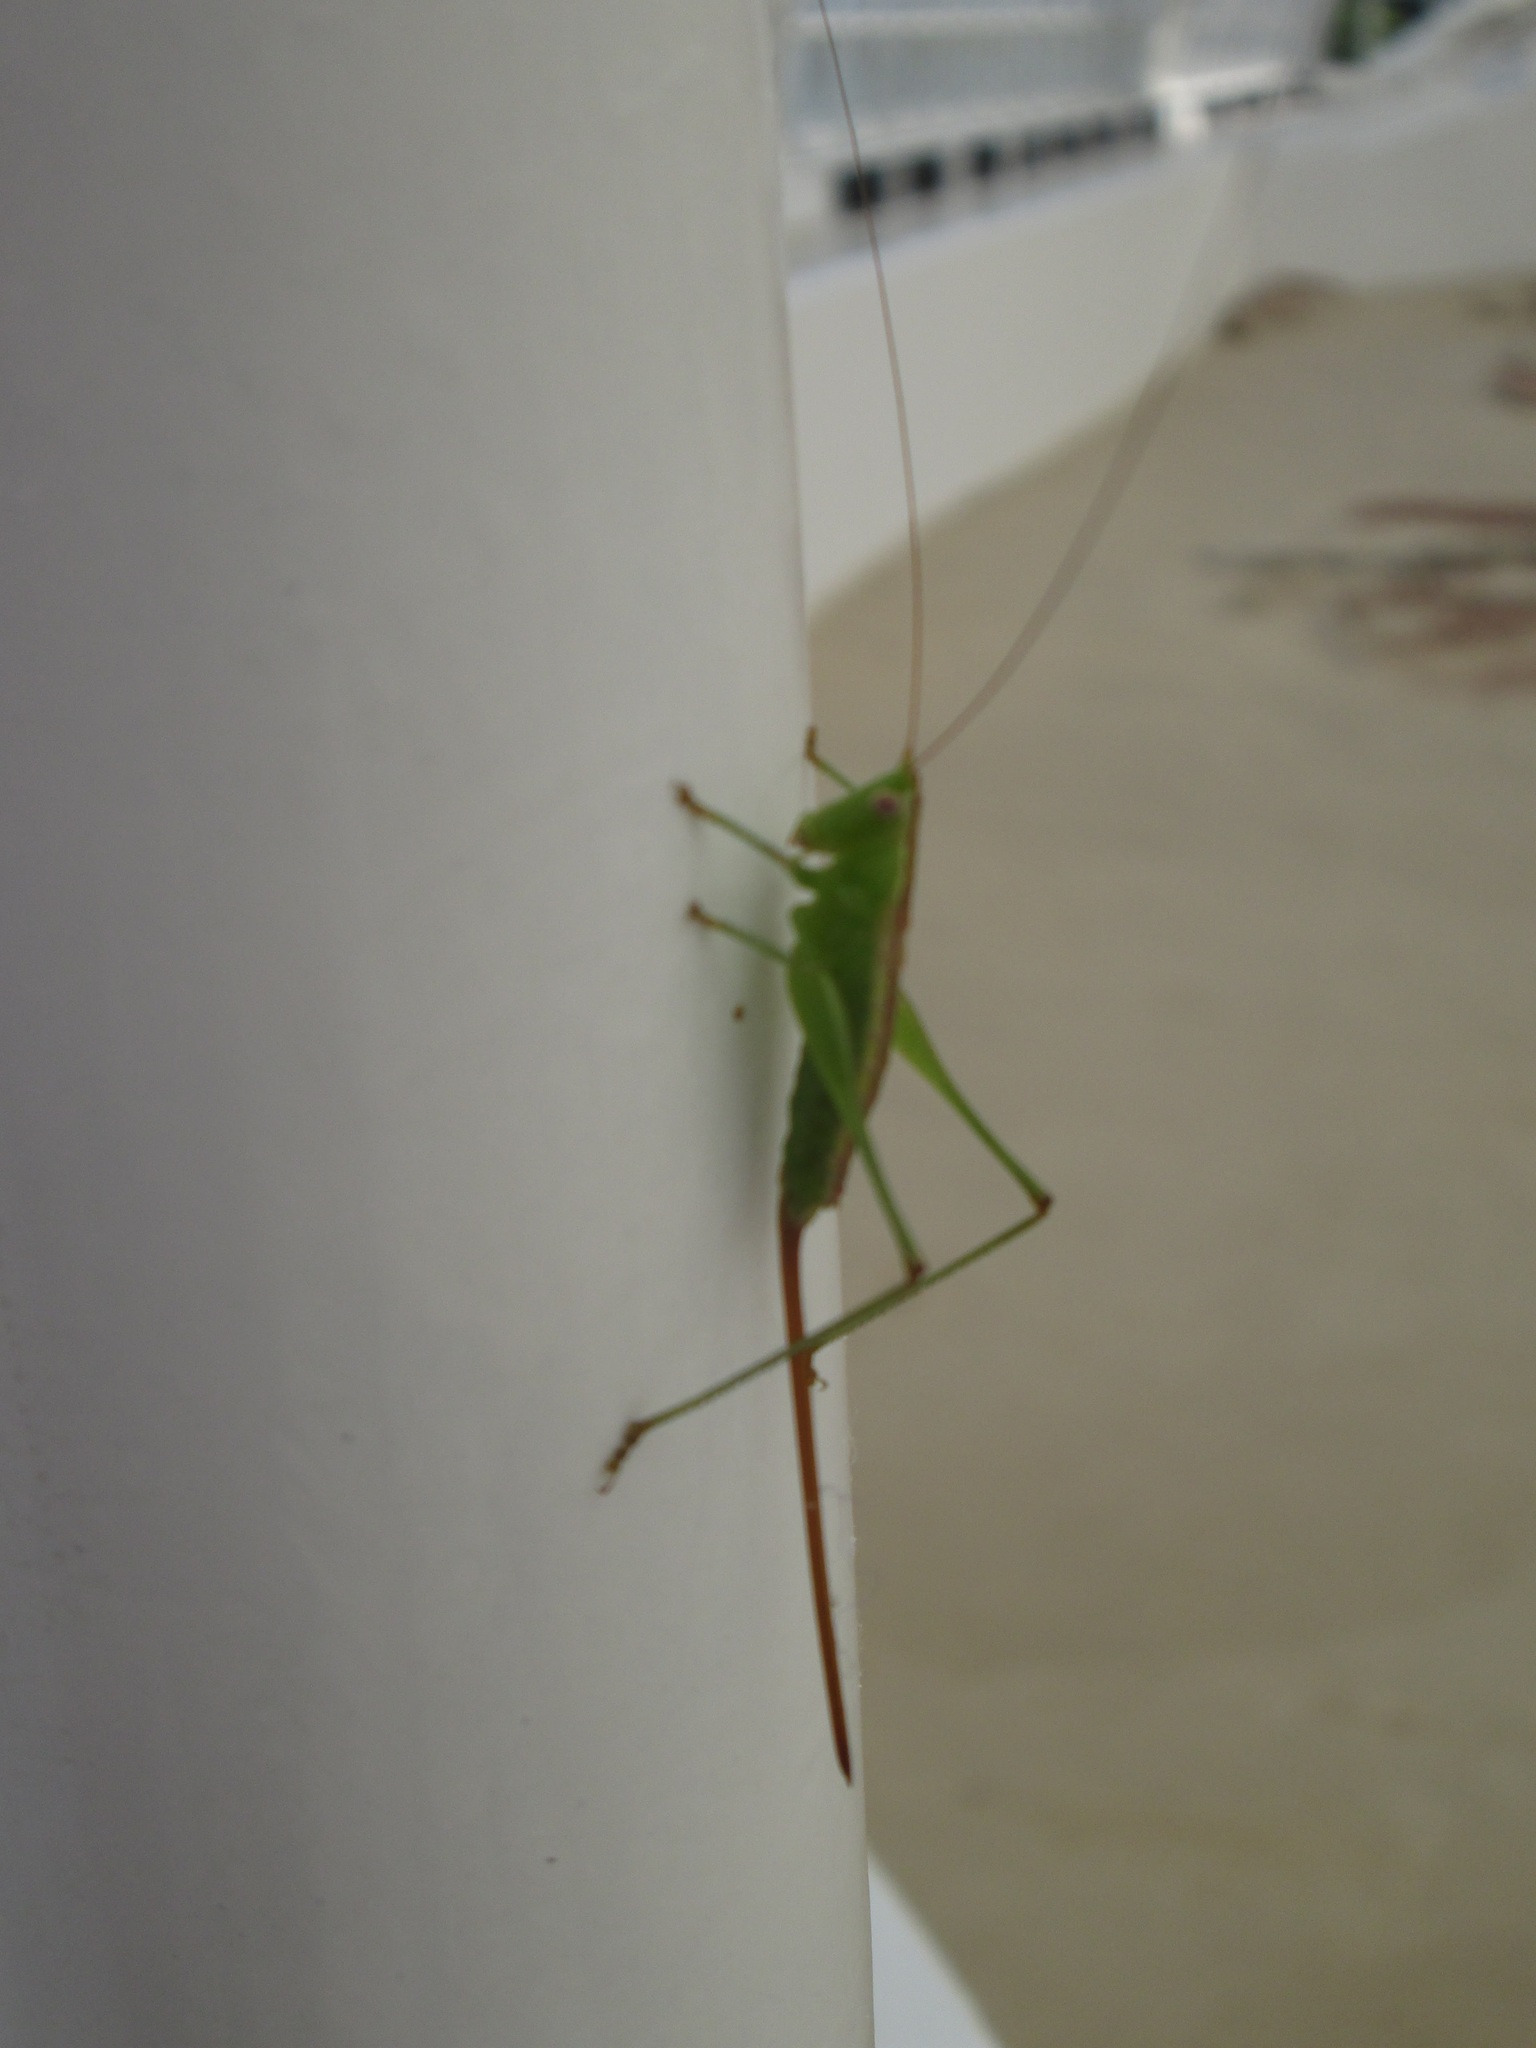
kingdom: Animalia
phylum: Arthropoda
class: Insecta
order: Orthoptera
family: Tettigoniidae
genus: Conocephalus
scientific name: Conocephalus hastatus
